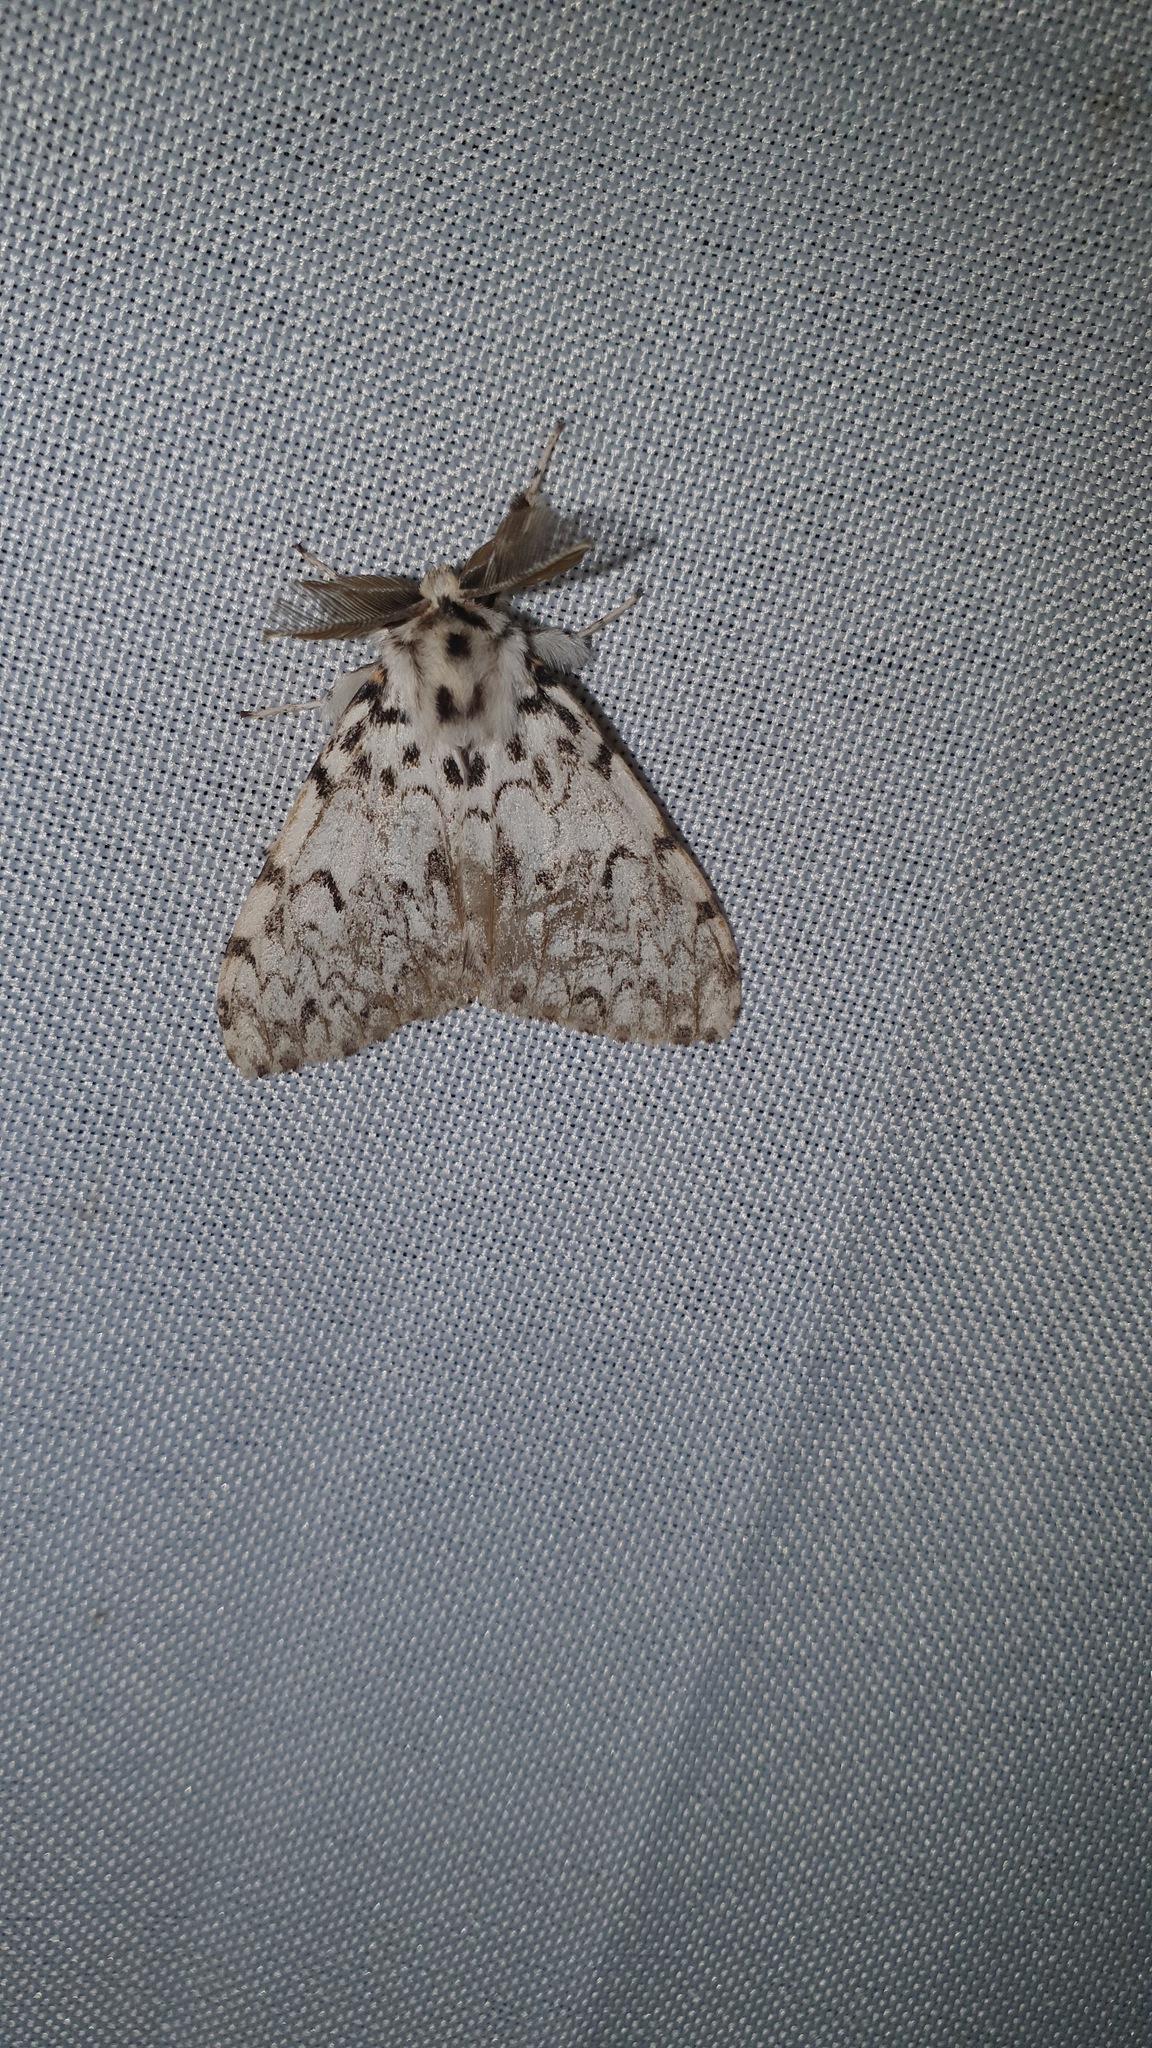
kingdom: Animalia
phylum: Arthropoda
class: Insecta
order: Lepidoptera
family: Erebidae
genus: Lymantria
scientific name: Lymantria monacha
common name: Black arches
